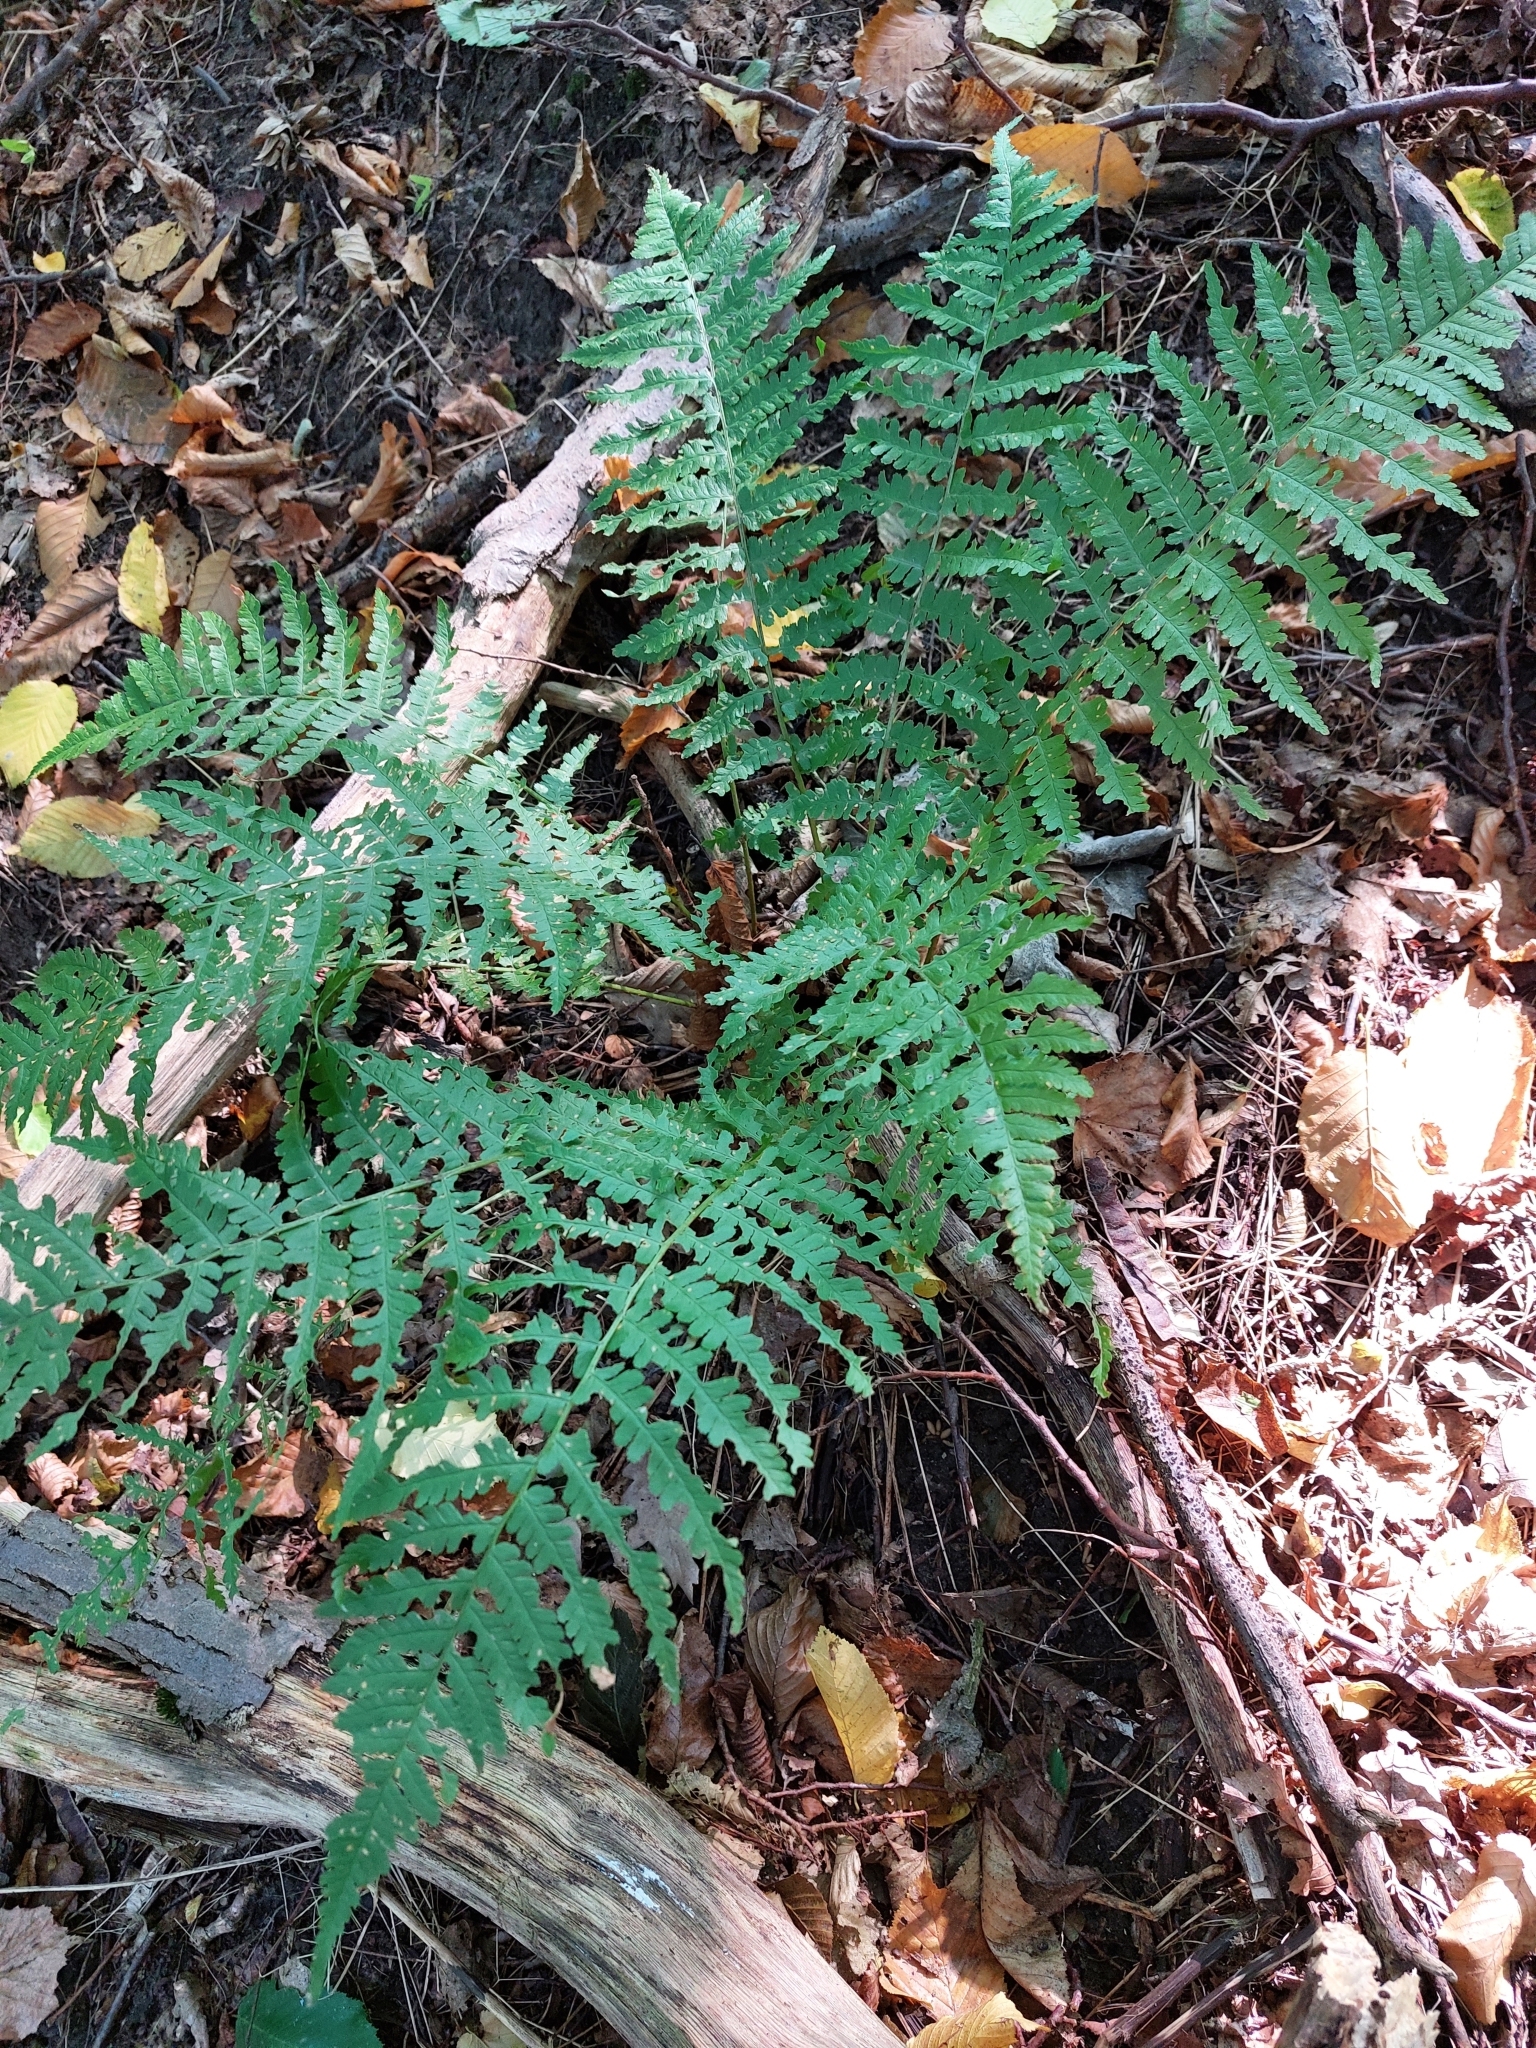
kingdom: Plantae
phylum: Tracheophyta
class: Polypodiopsida
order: Polypodiales
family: Dryopteridaceae
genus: Dryopteris
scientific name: Dryopteris filix-mas
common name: Male fern
